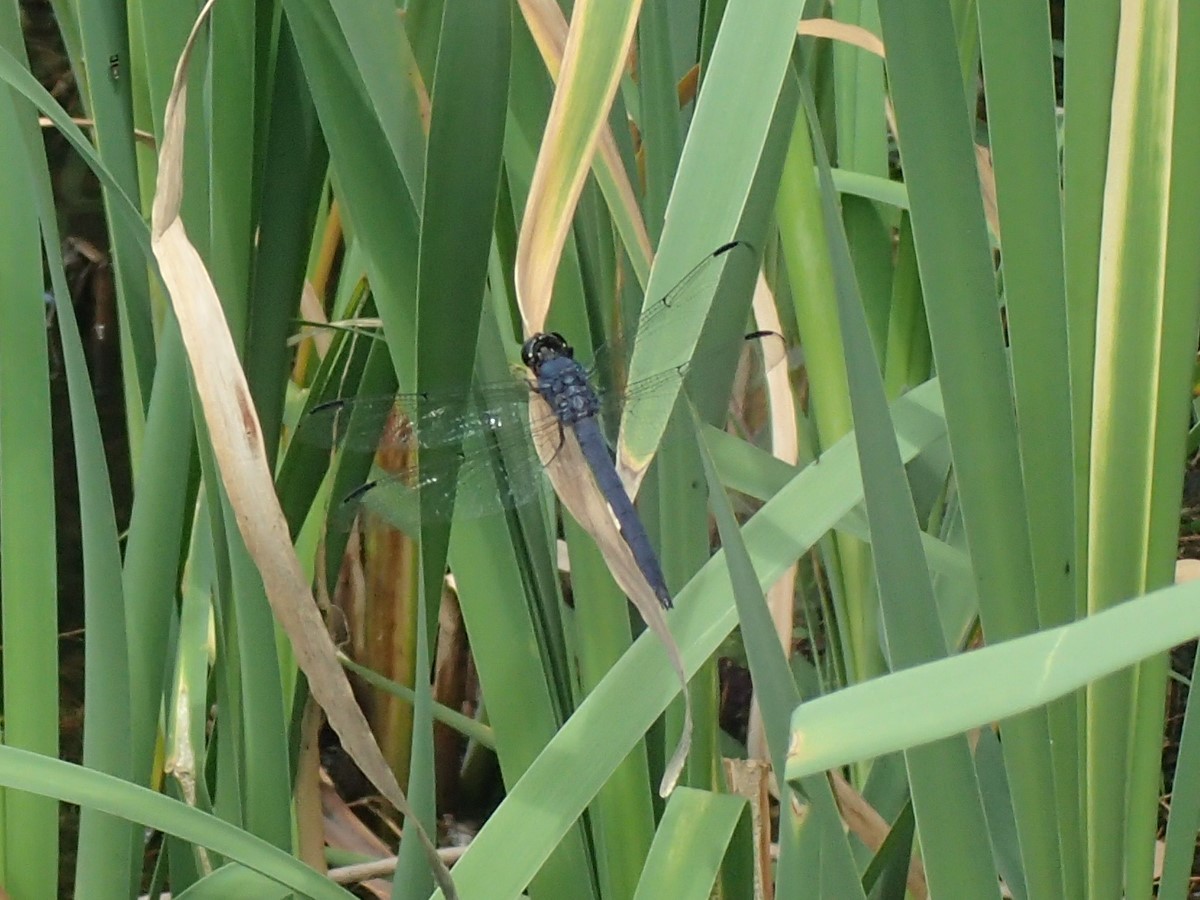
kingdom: Animalia
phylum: Arthropoda
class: Insecta
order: Odonata
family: Libellulidae
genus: Libellula
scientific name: Libellula incesta
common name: Slaty skimmer
